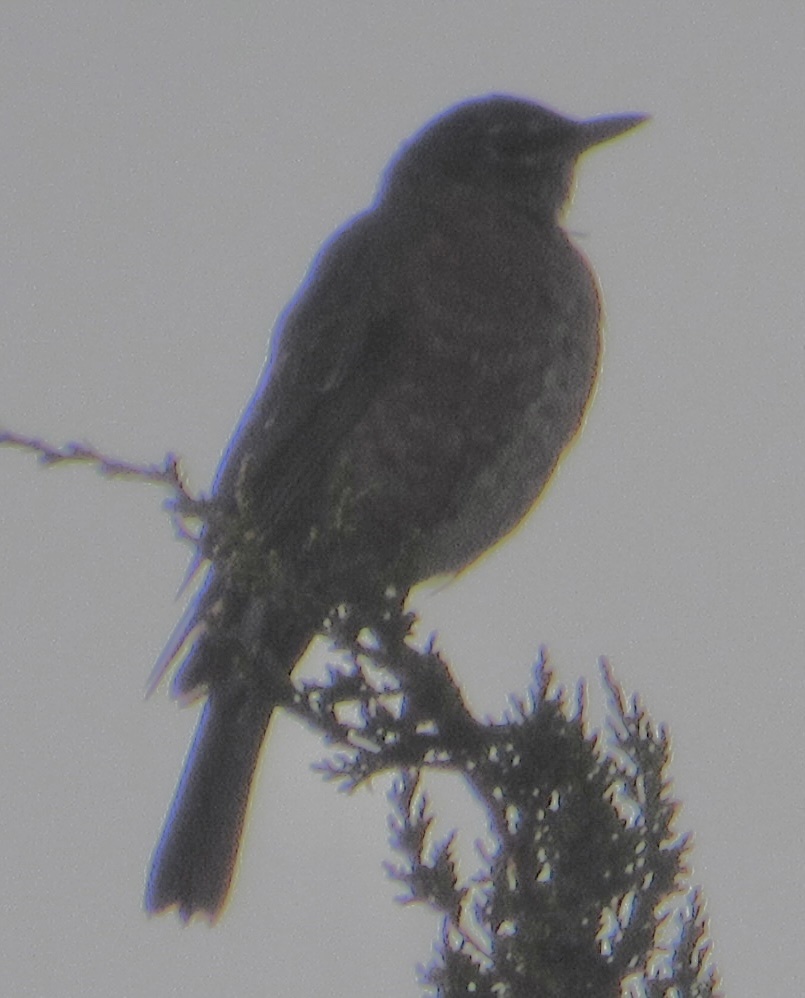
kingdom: Animalia
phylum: Chordata
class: Aves
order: Passeriformes
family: Turdidae
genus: Turdus
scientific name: Turdus migratorius
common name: American robin
